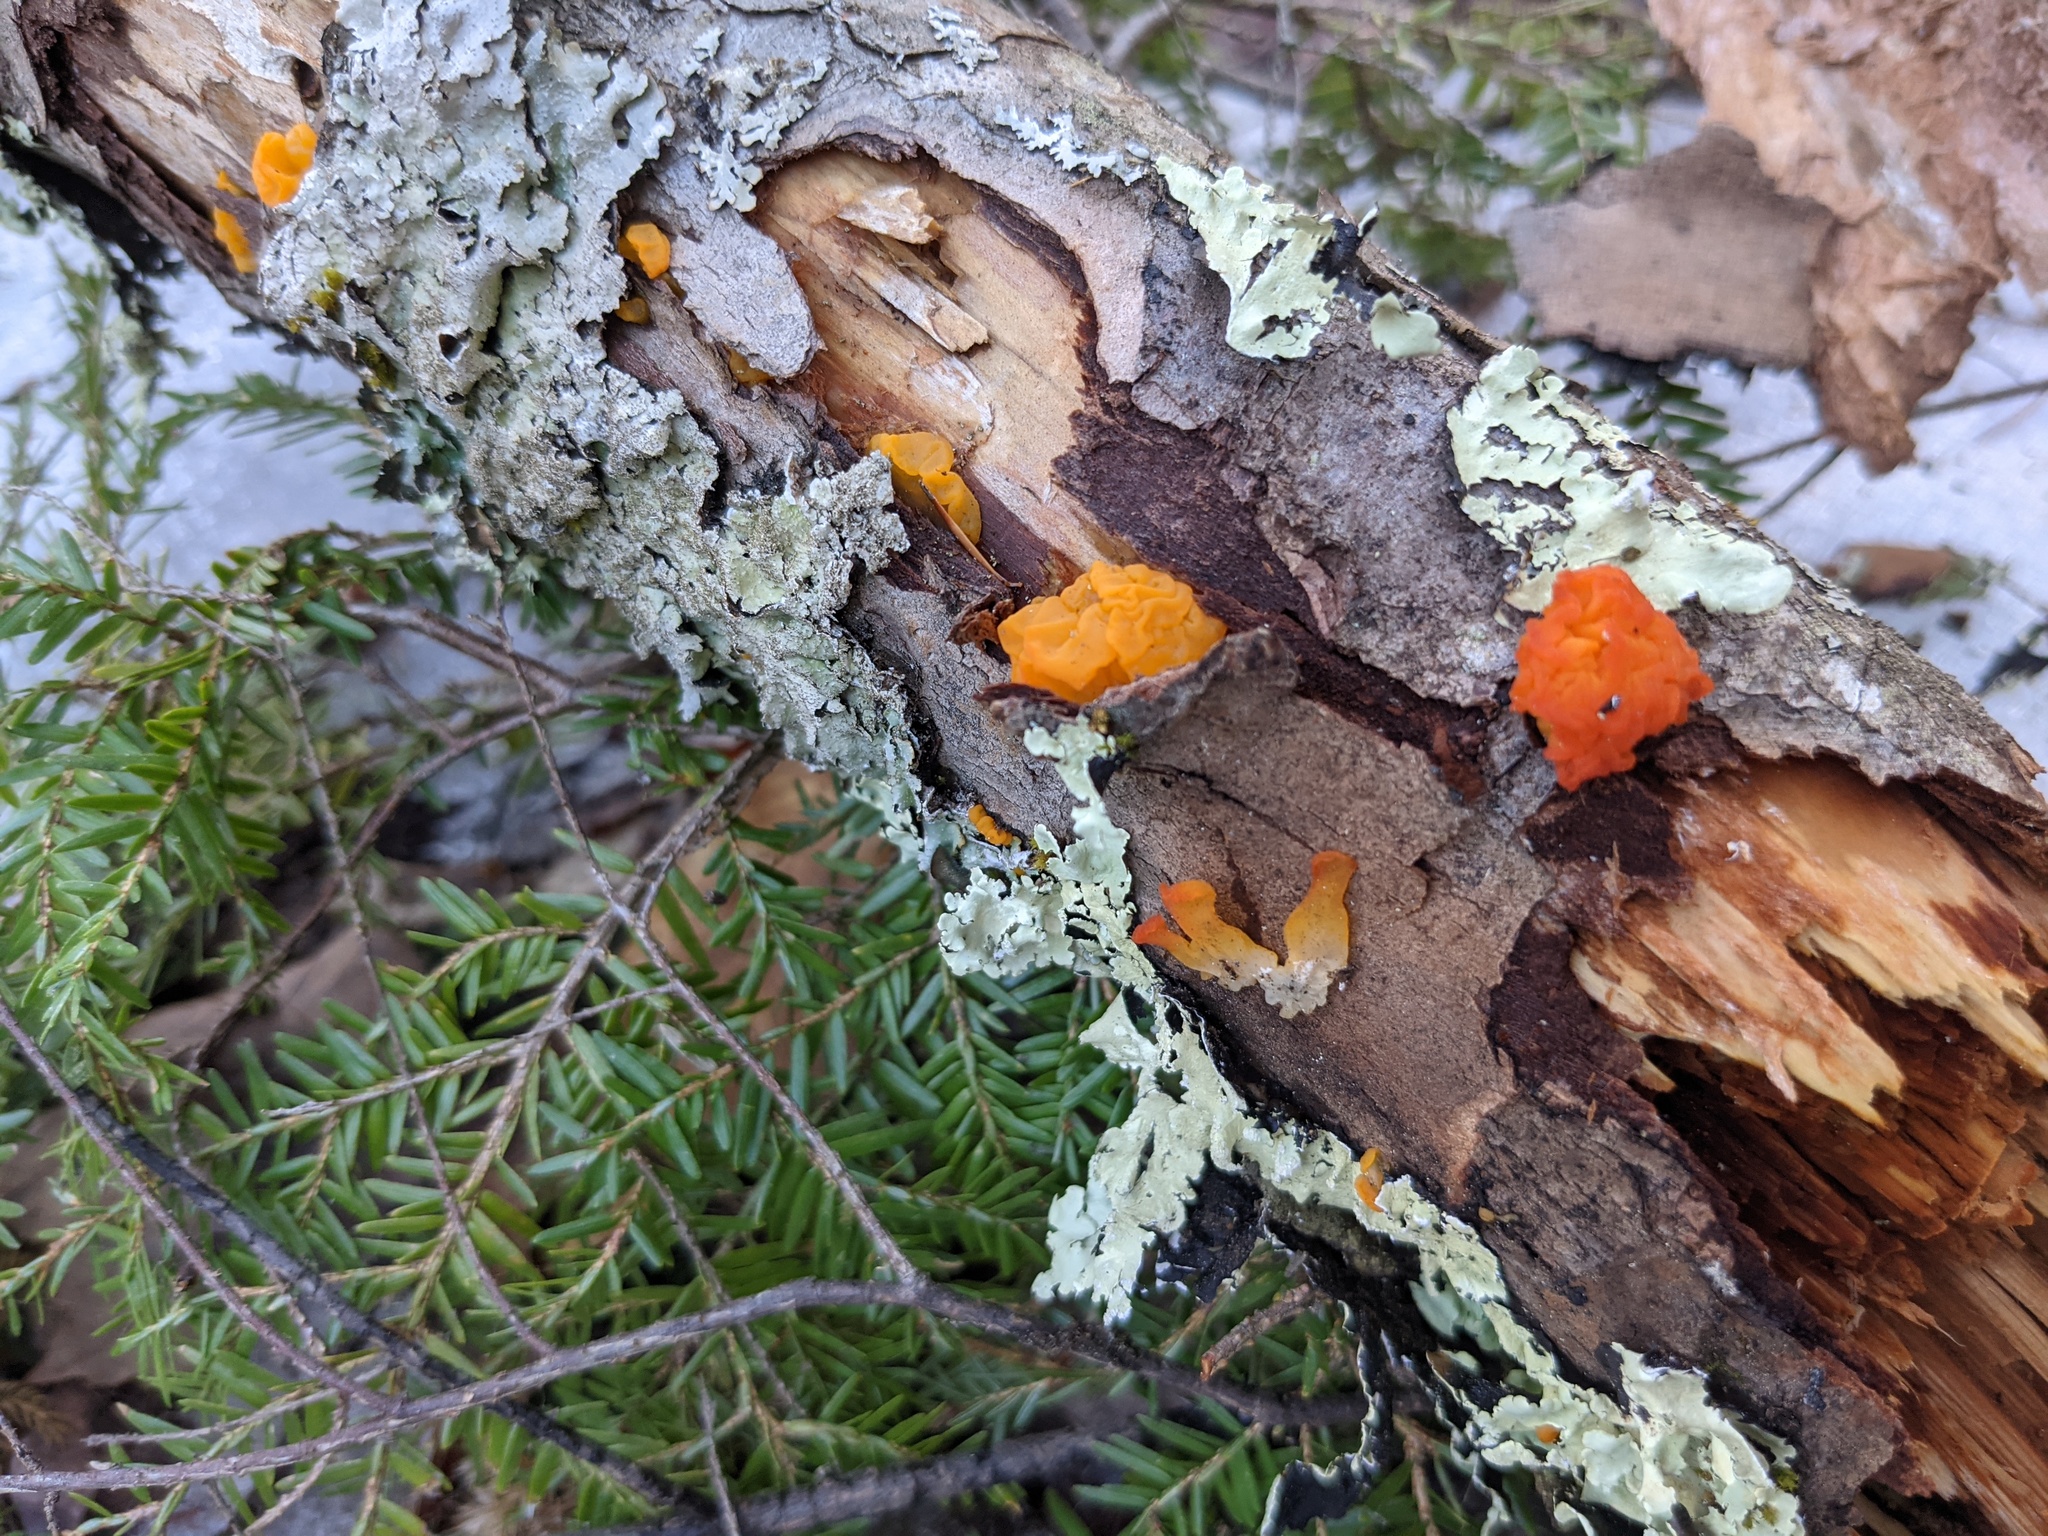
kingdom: Fungi
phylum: Basidiomycota
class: Dacrymycetes
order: Dacrymycetales
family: Dacrymycetaceae
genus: Dacrymyces
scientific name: Dacrymyces chrysospermus
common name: Orange jelly spot
